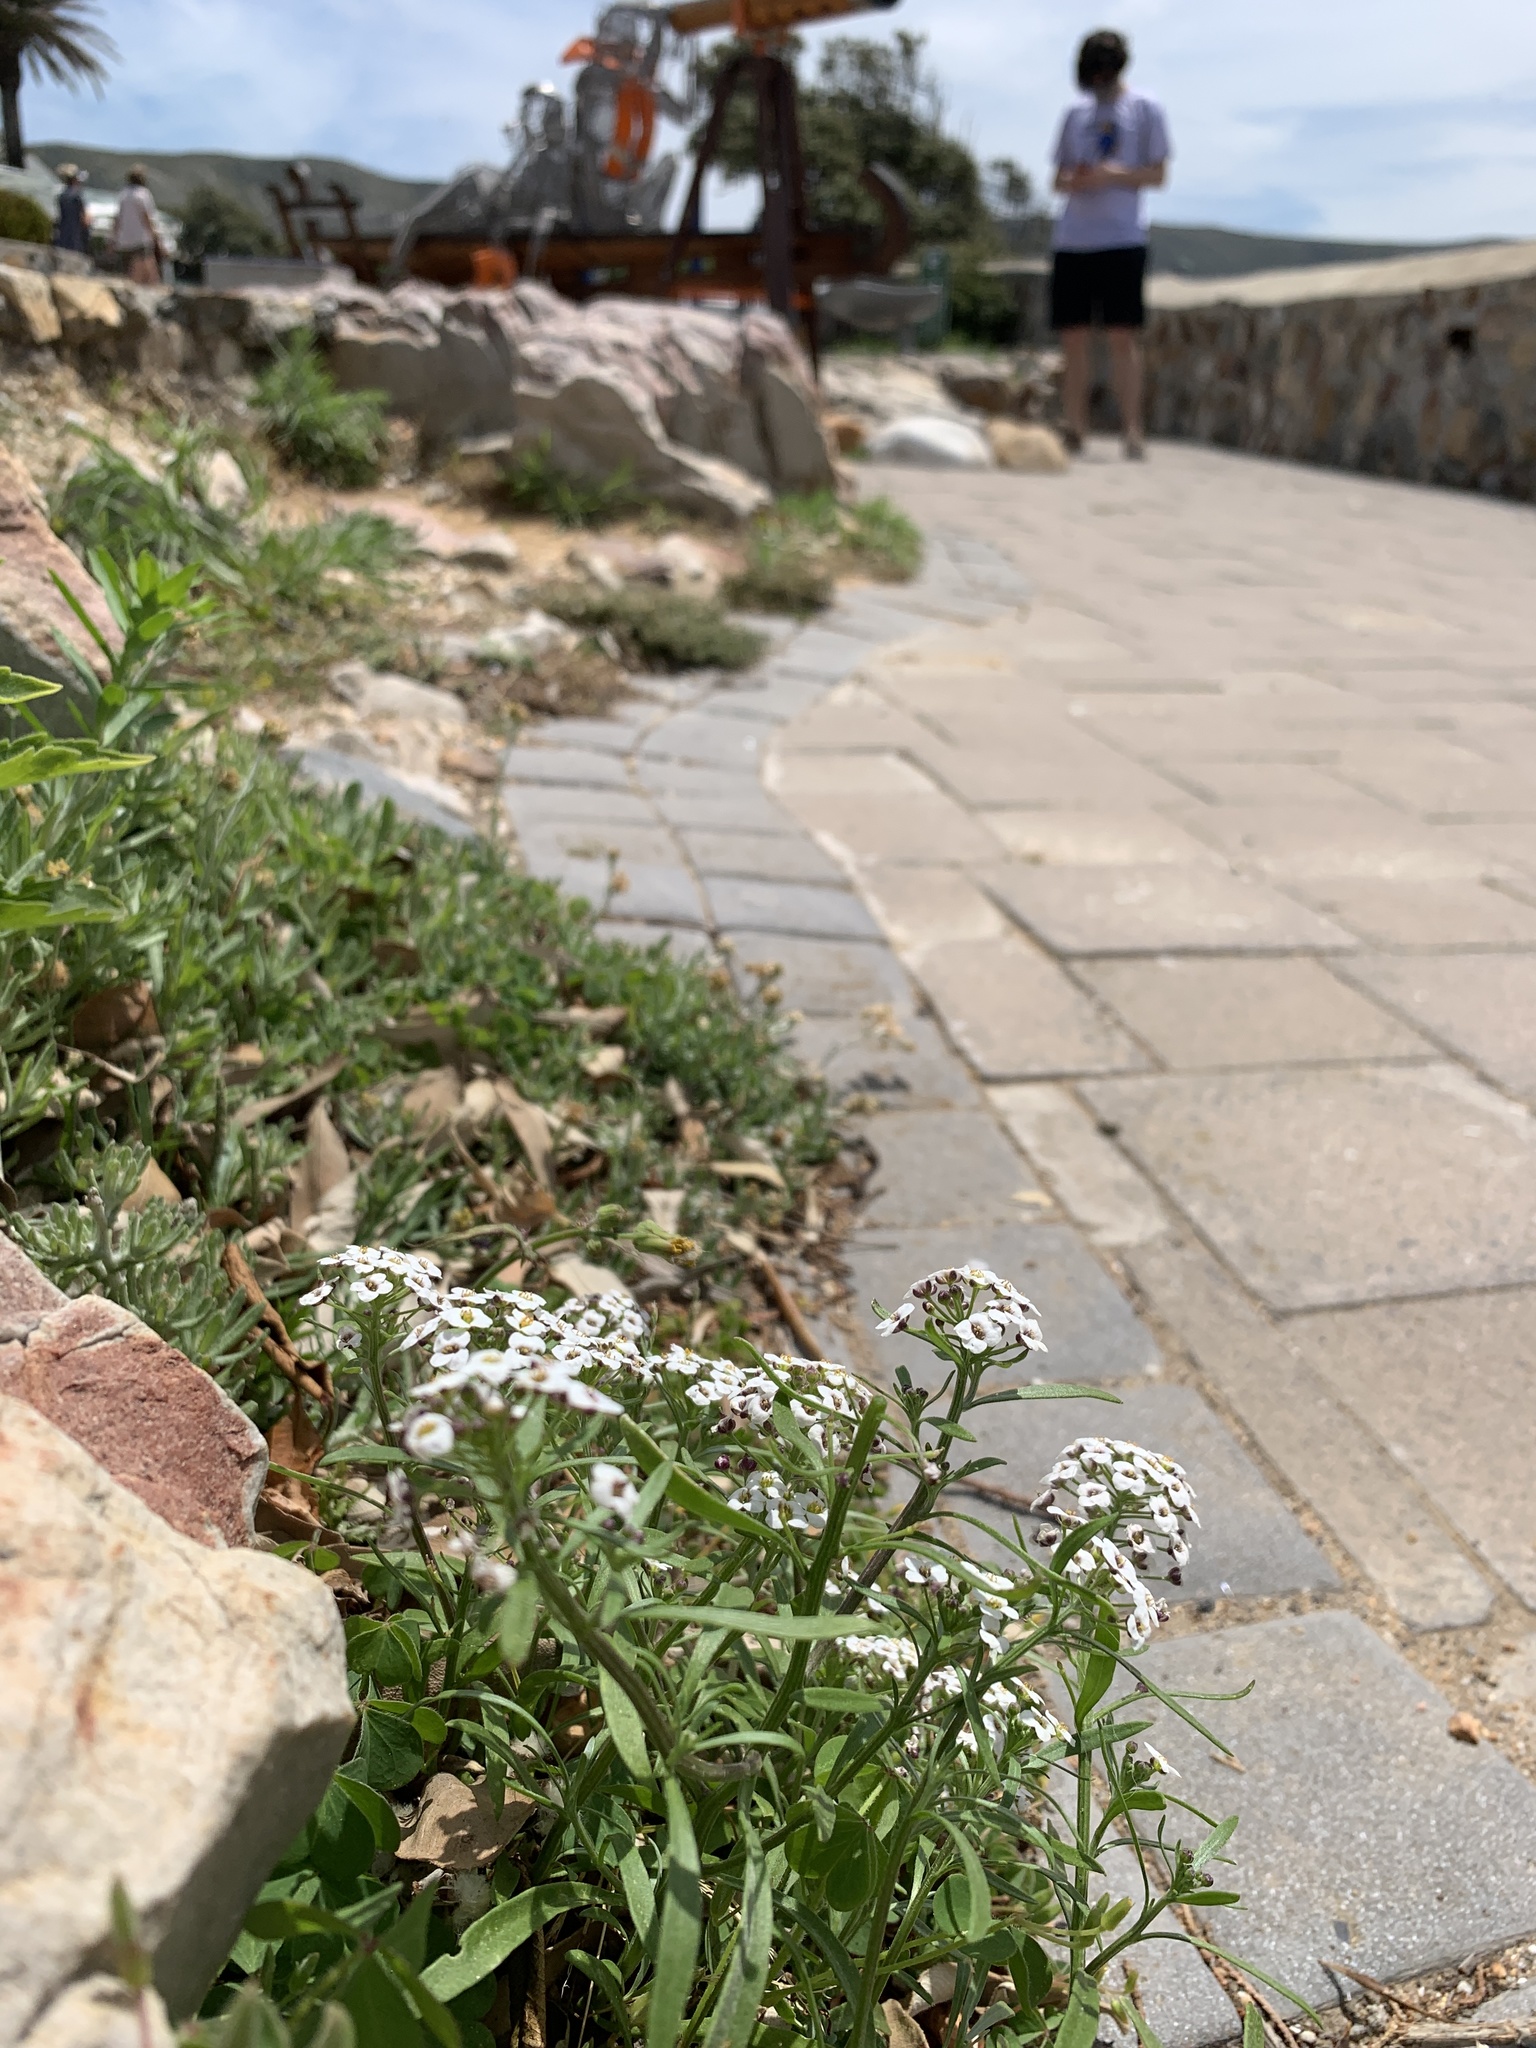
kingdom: Plantae
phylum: Tracheophyta
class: Magnoliopsida
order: Brassicales
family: Brassicaceae
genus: Lobularia
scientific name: Lobularia maritima
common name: Sweet alison
